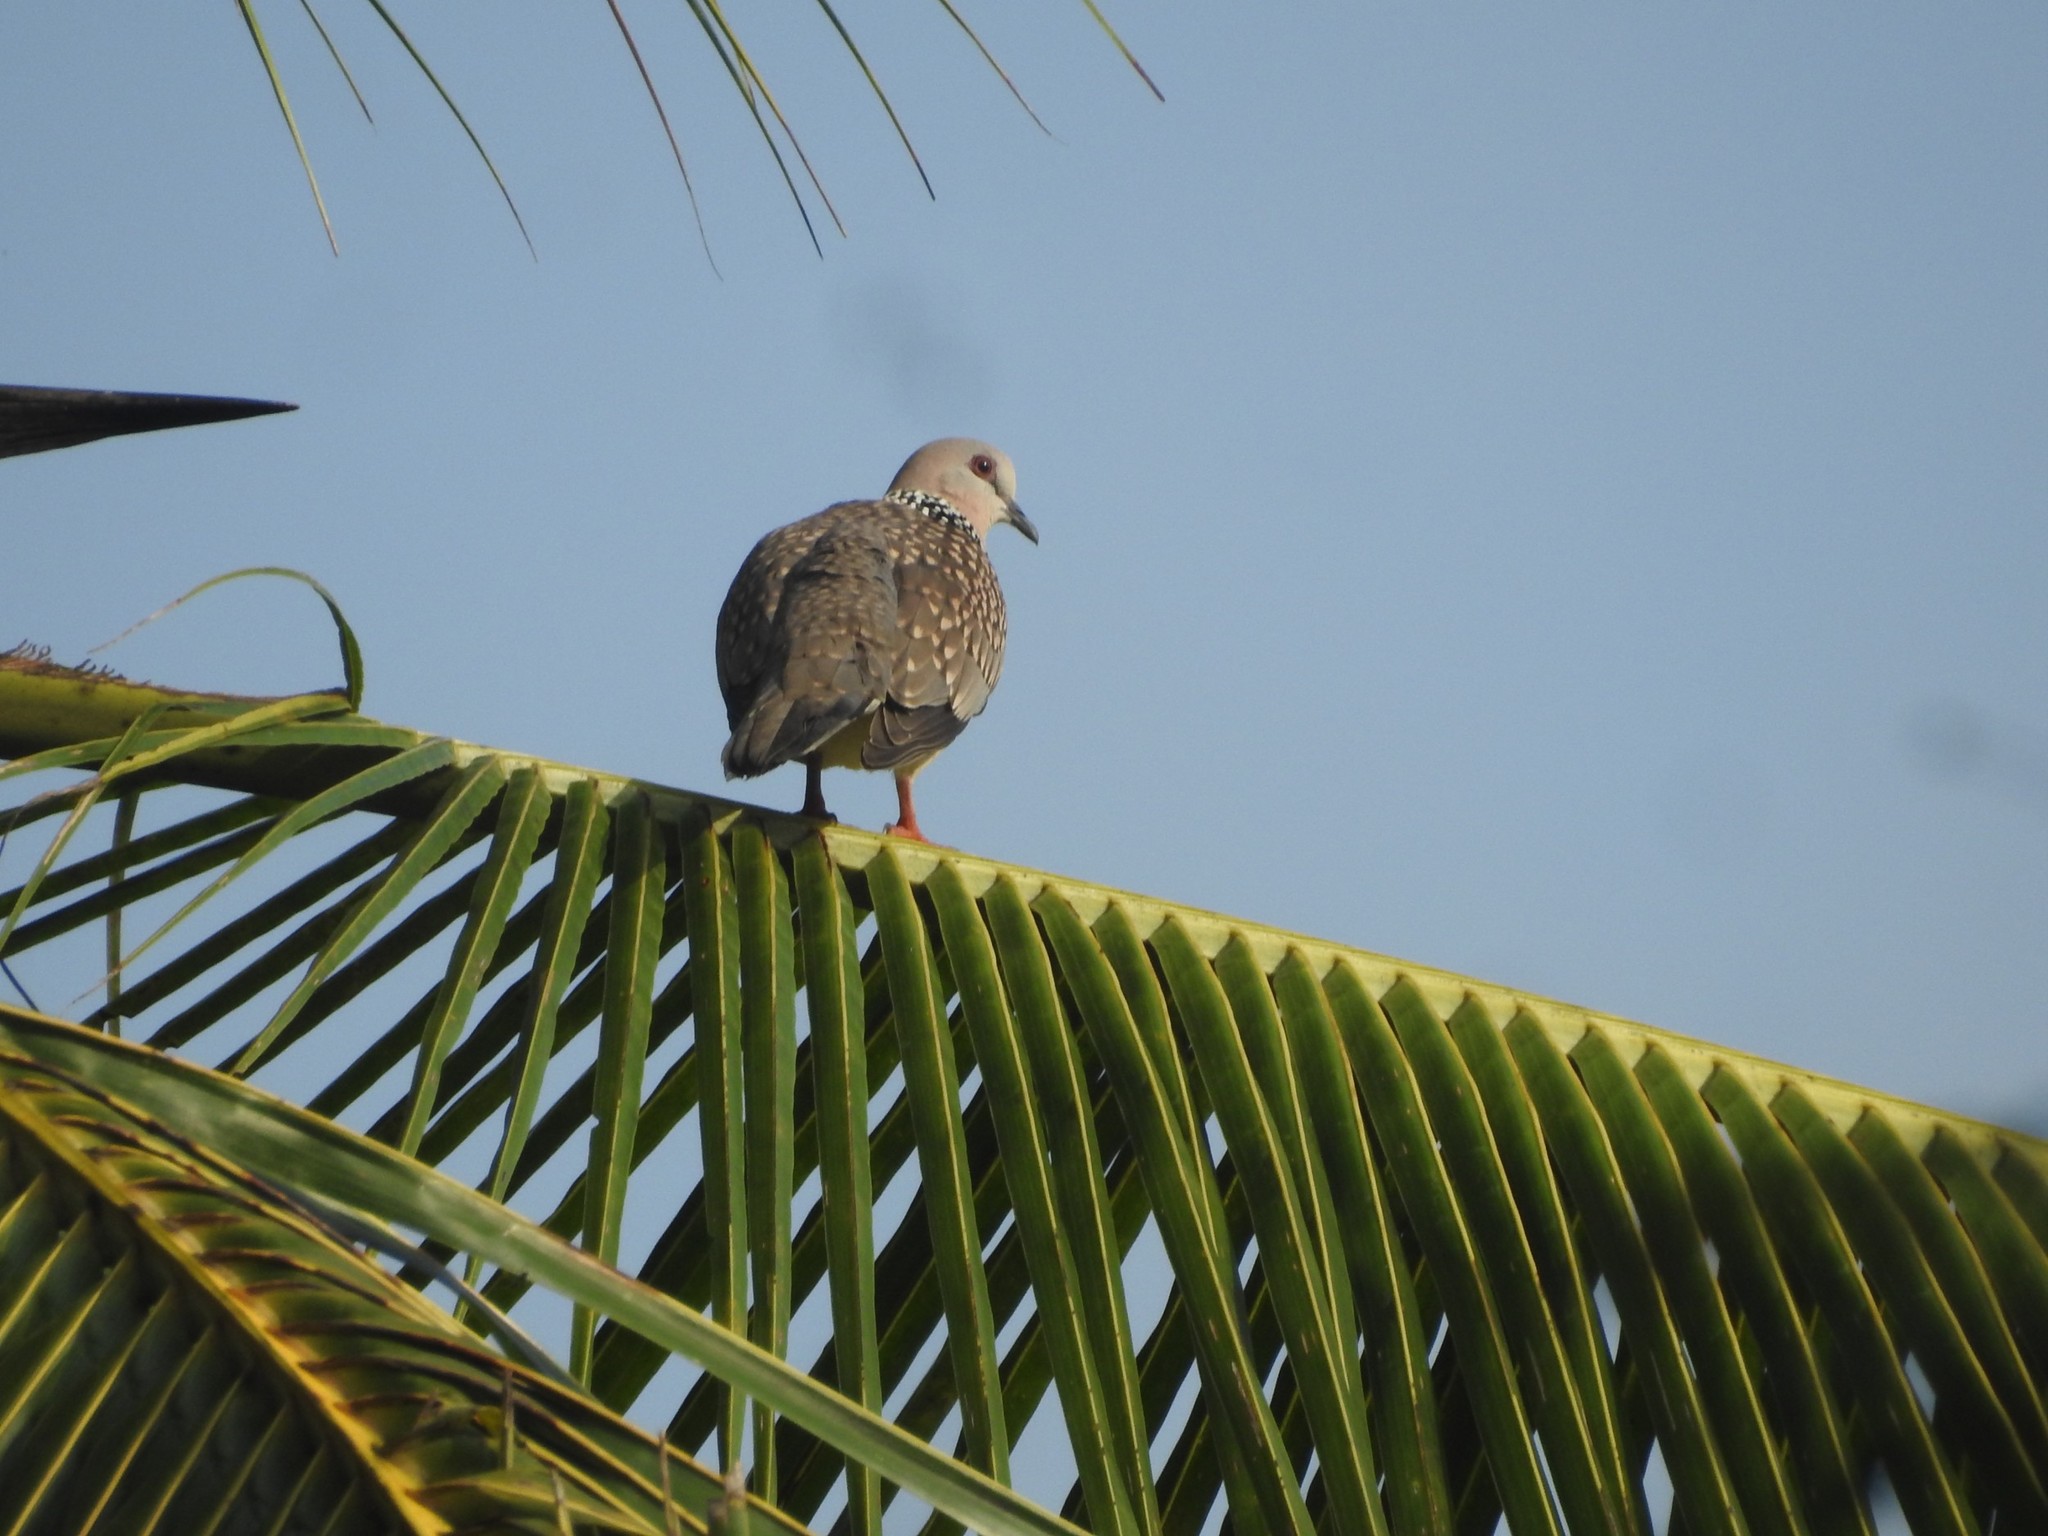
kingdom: Animalia
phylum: Chordata
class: Aves
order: Columbiformes
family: Columbidae
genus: Spilopelia
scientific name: Spilopelia chinensis
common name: Spotted dove
